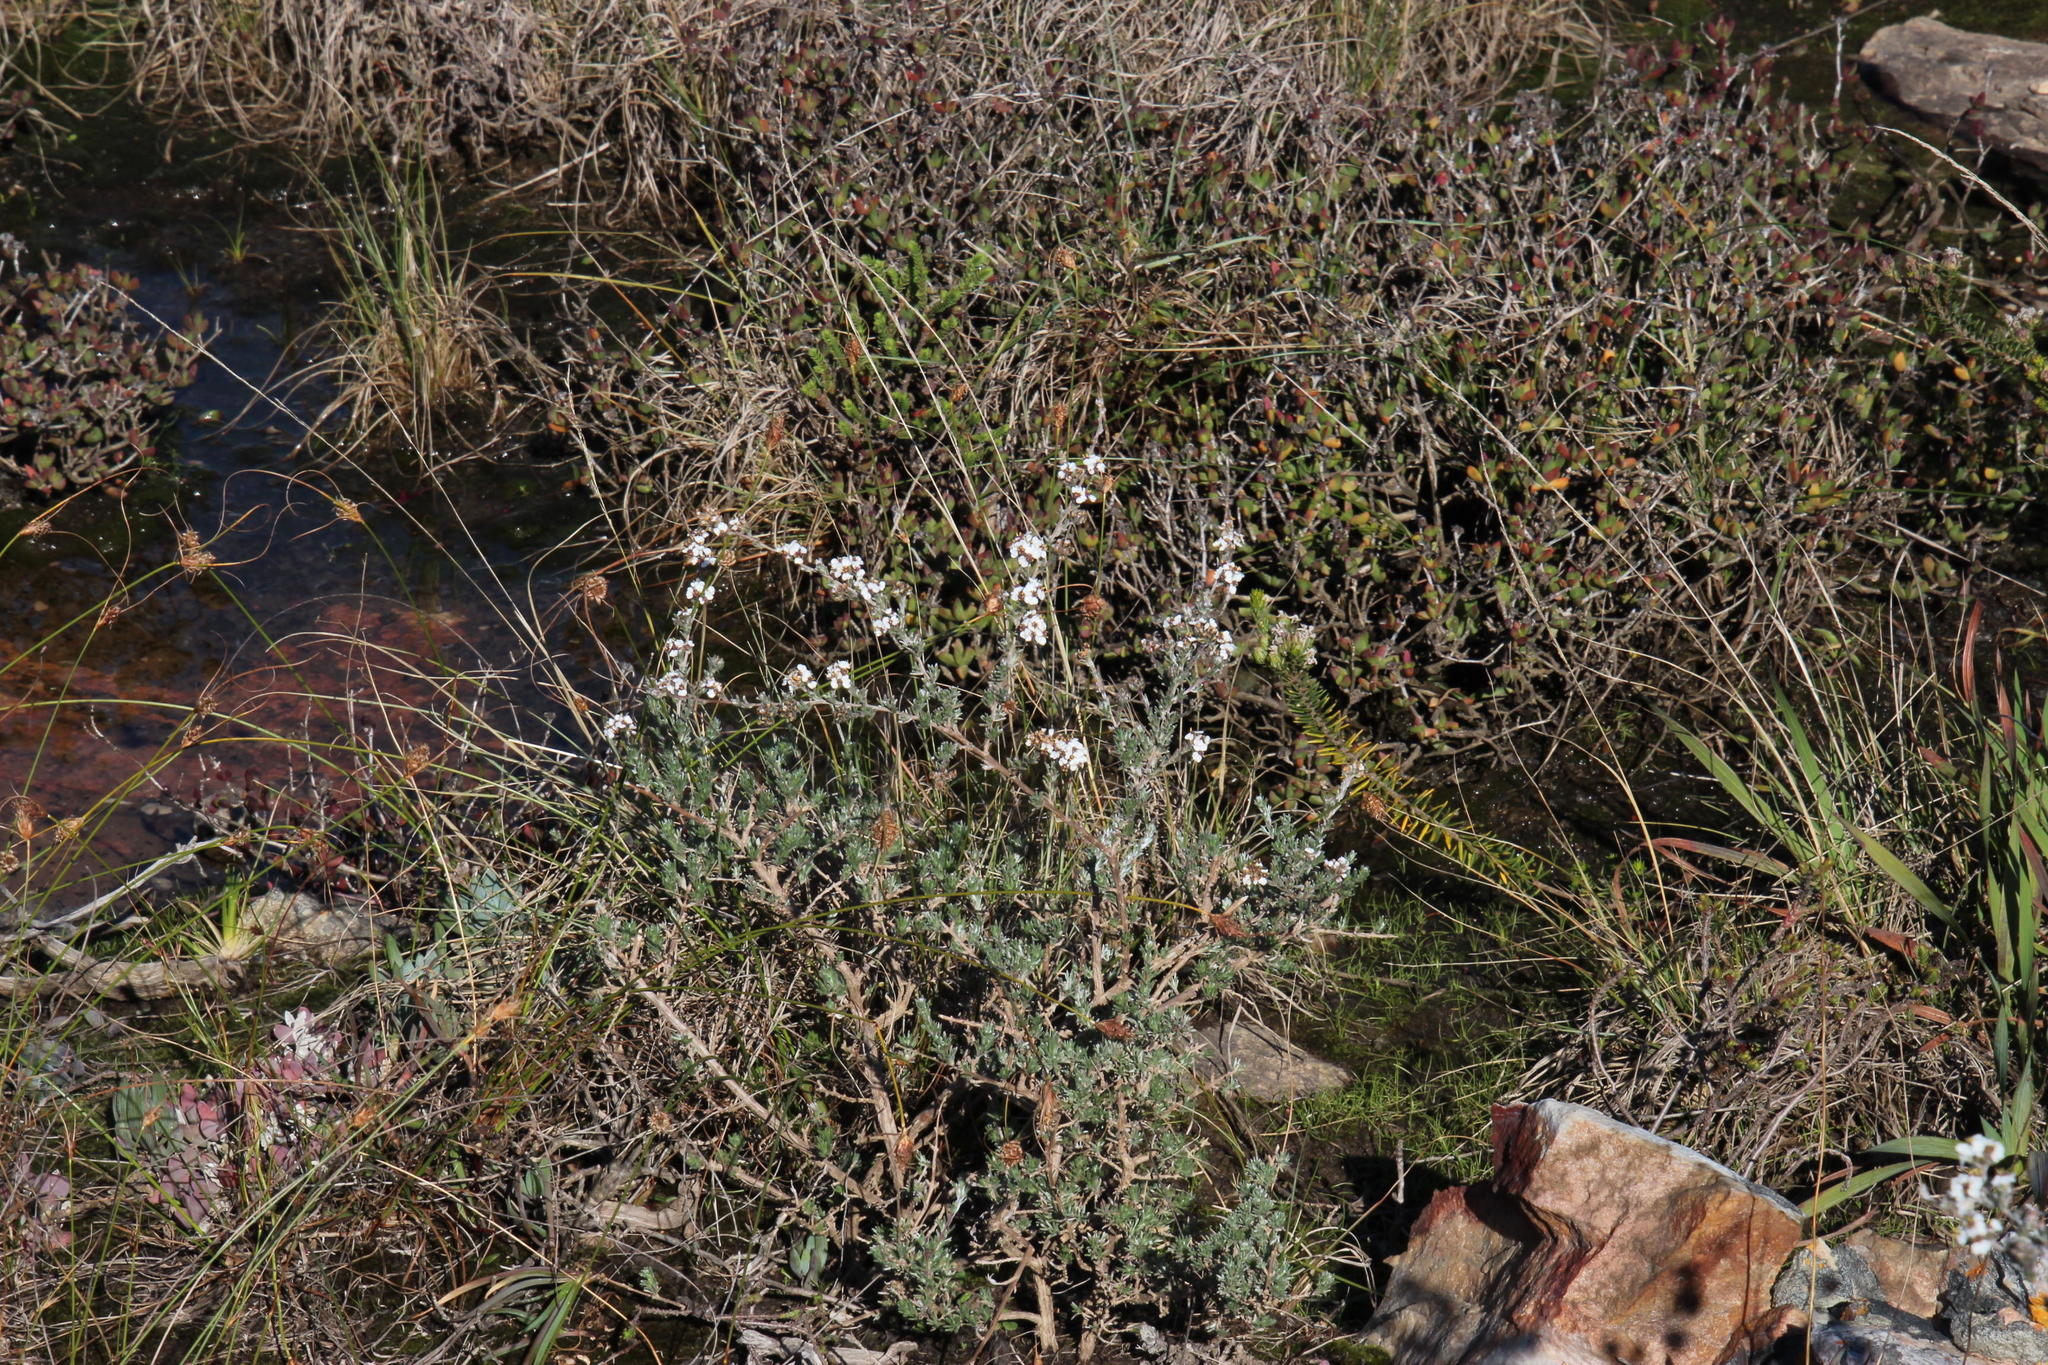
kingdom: Plantae
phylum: Tracheophyta
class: Magnoliopsida
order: Asterales
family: Asteraceae
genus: Eriocephalus
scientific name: Eriocephalus africanus
